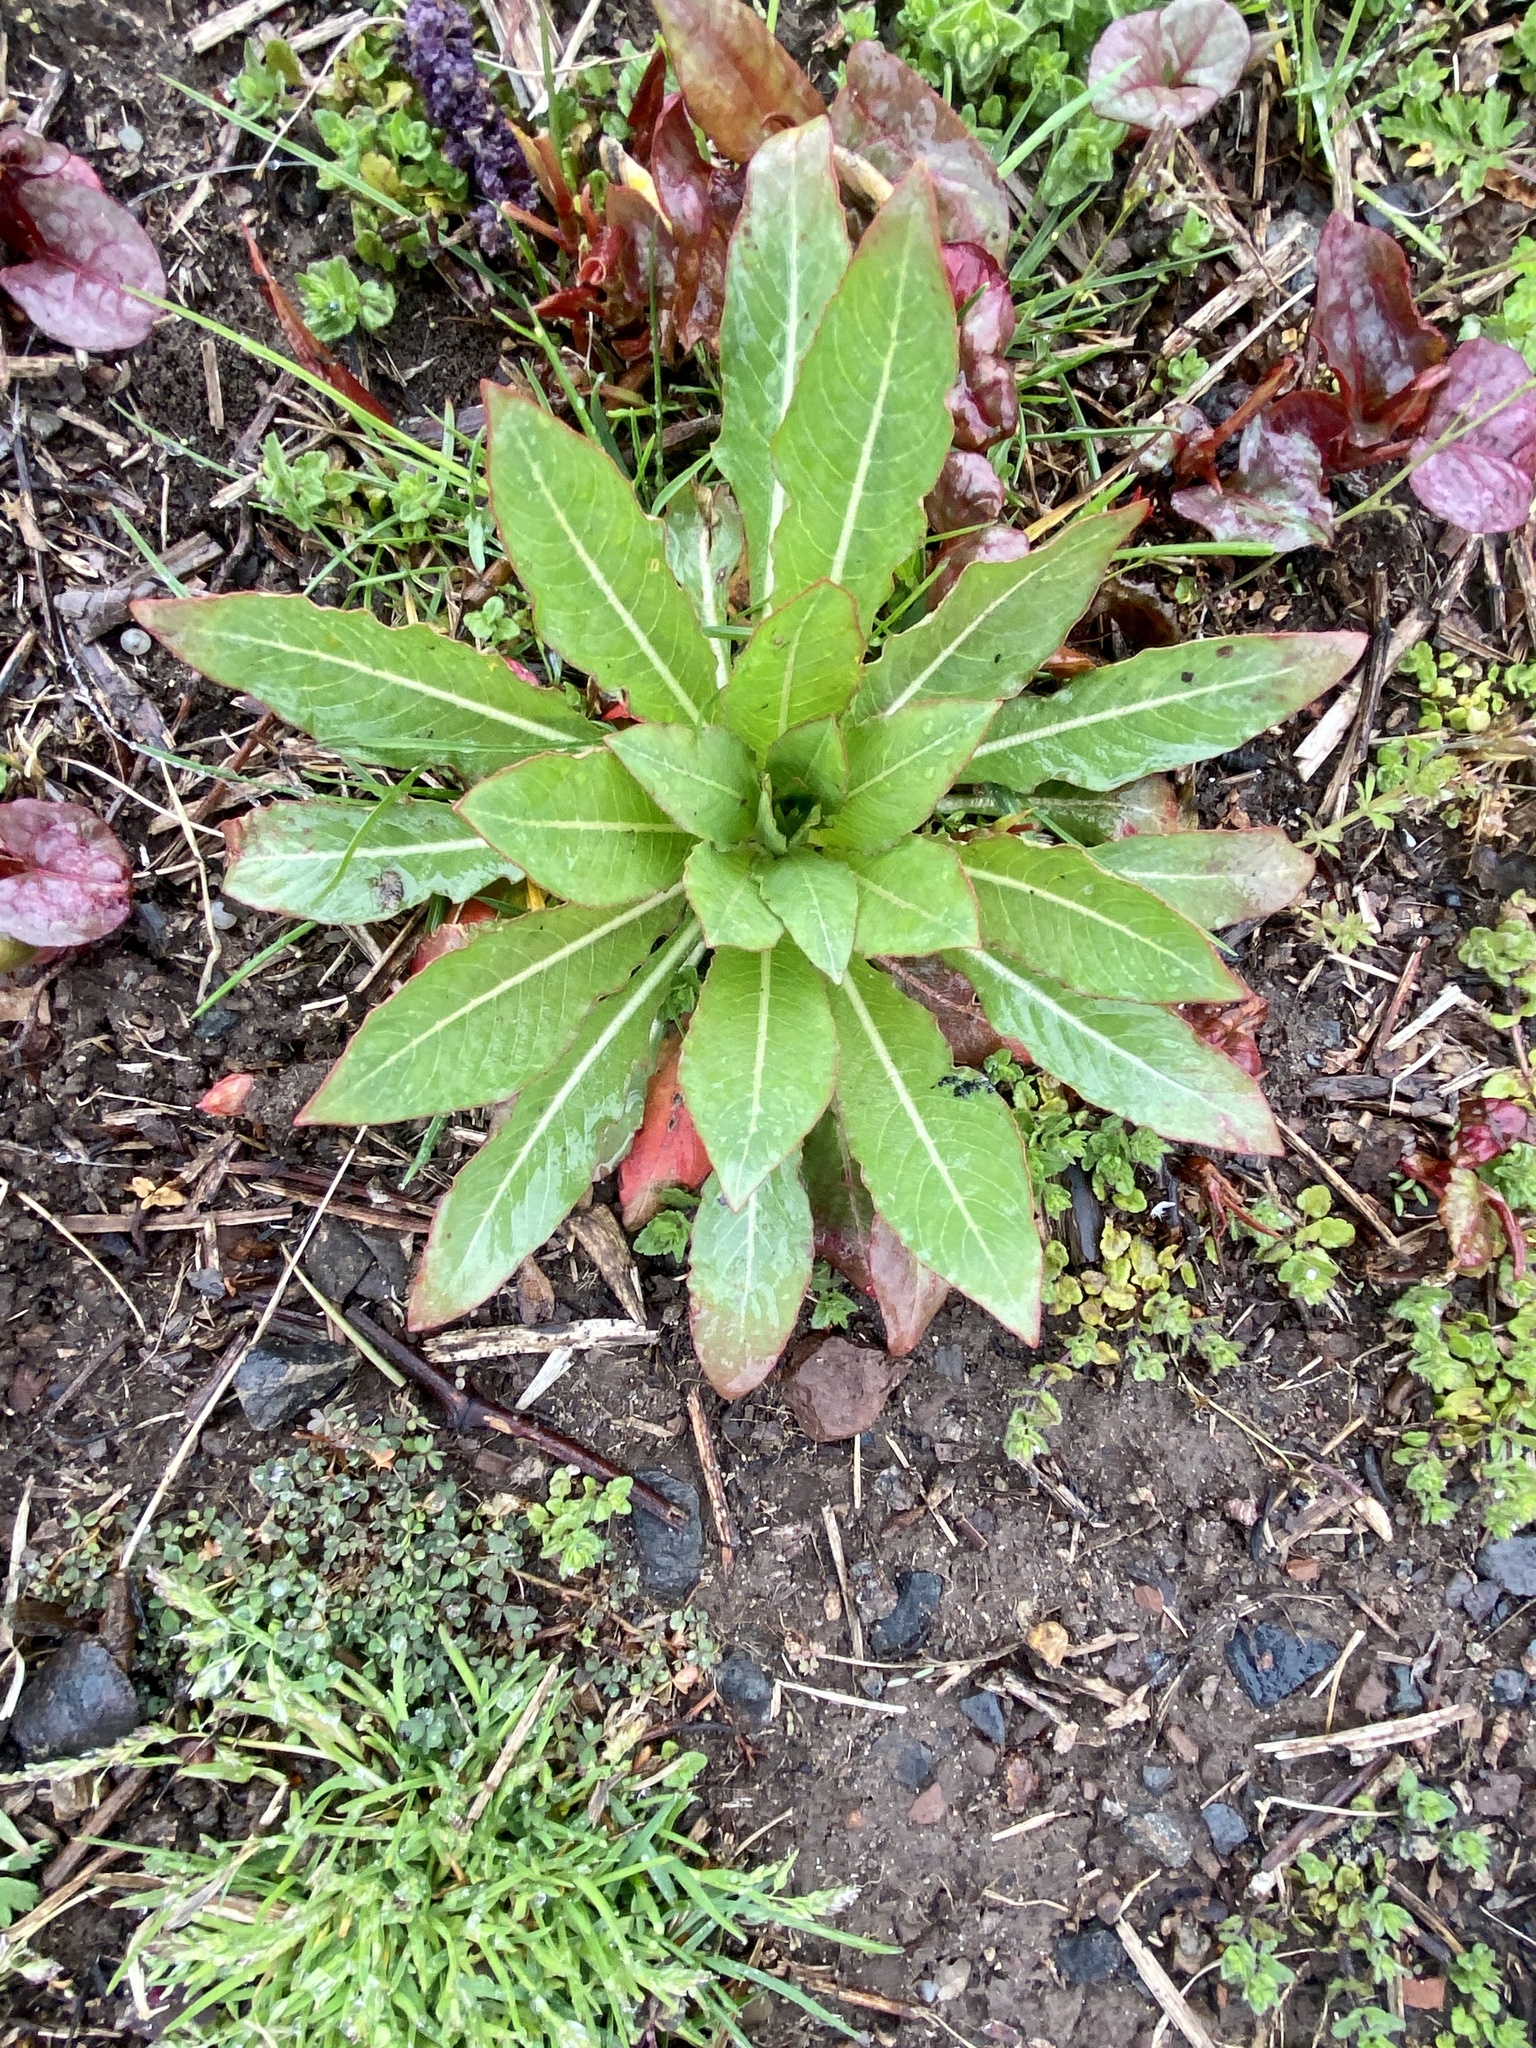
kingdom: Plantae
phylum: Tracheophyta
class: Magnoliopsida
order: Myrtales
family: Onagraceae
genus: Oenothera
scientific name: Oenothera biennis
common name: Common evening-primrose
